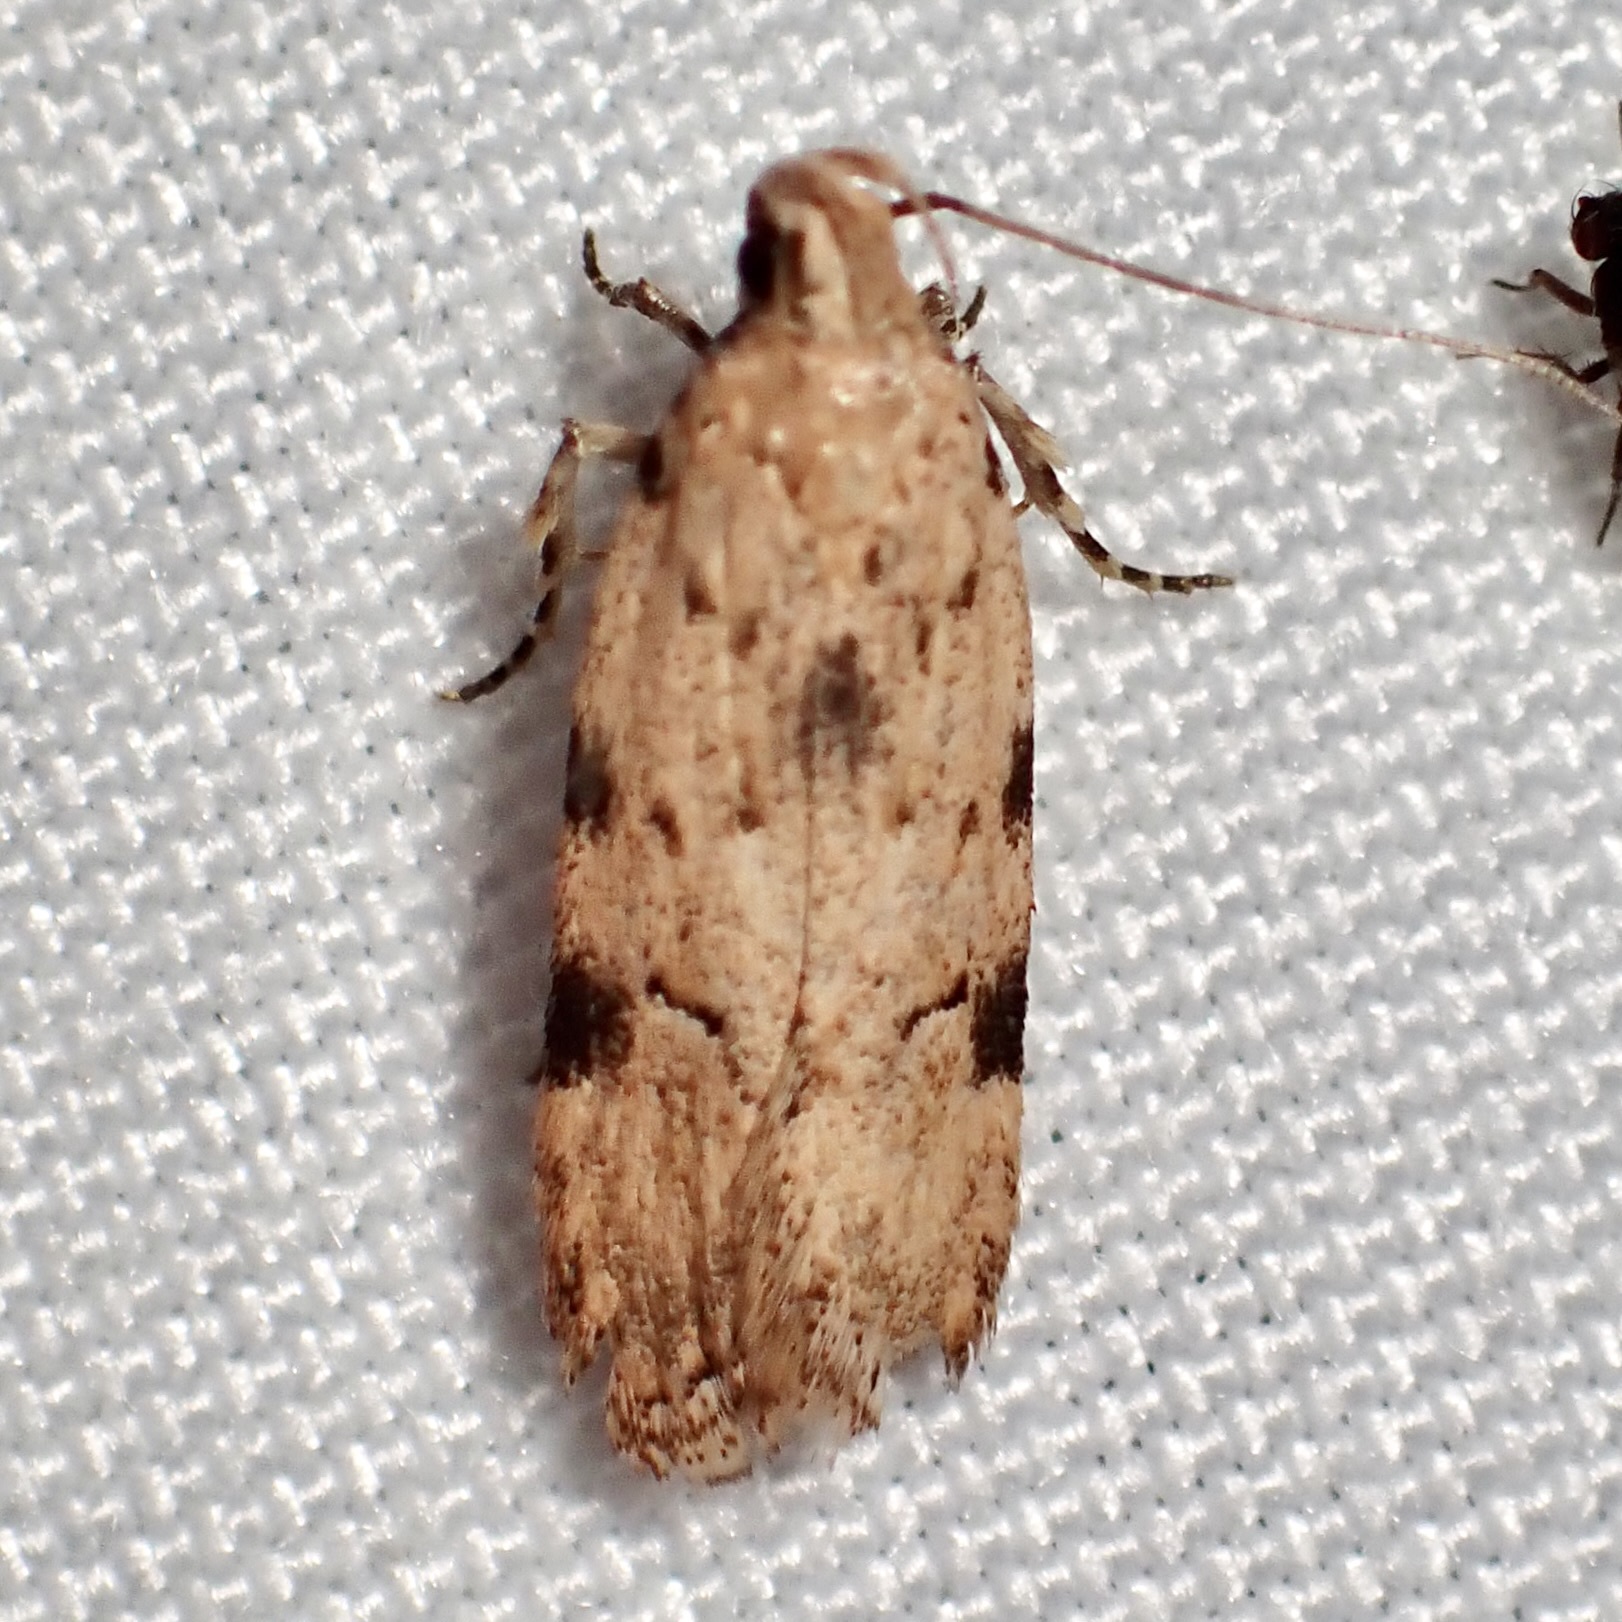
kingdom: Animalia
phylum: Arthropoda
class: Insecta
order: Lepidoptera
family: Gelechiidae
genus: Friseria
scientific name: Friseria cockerelli
